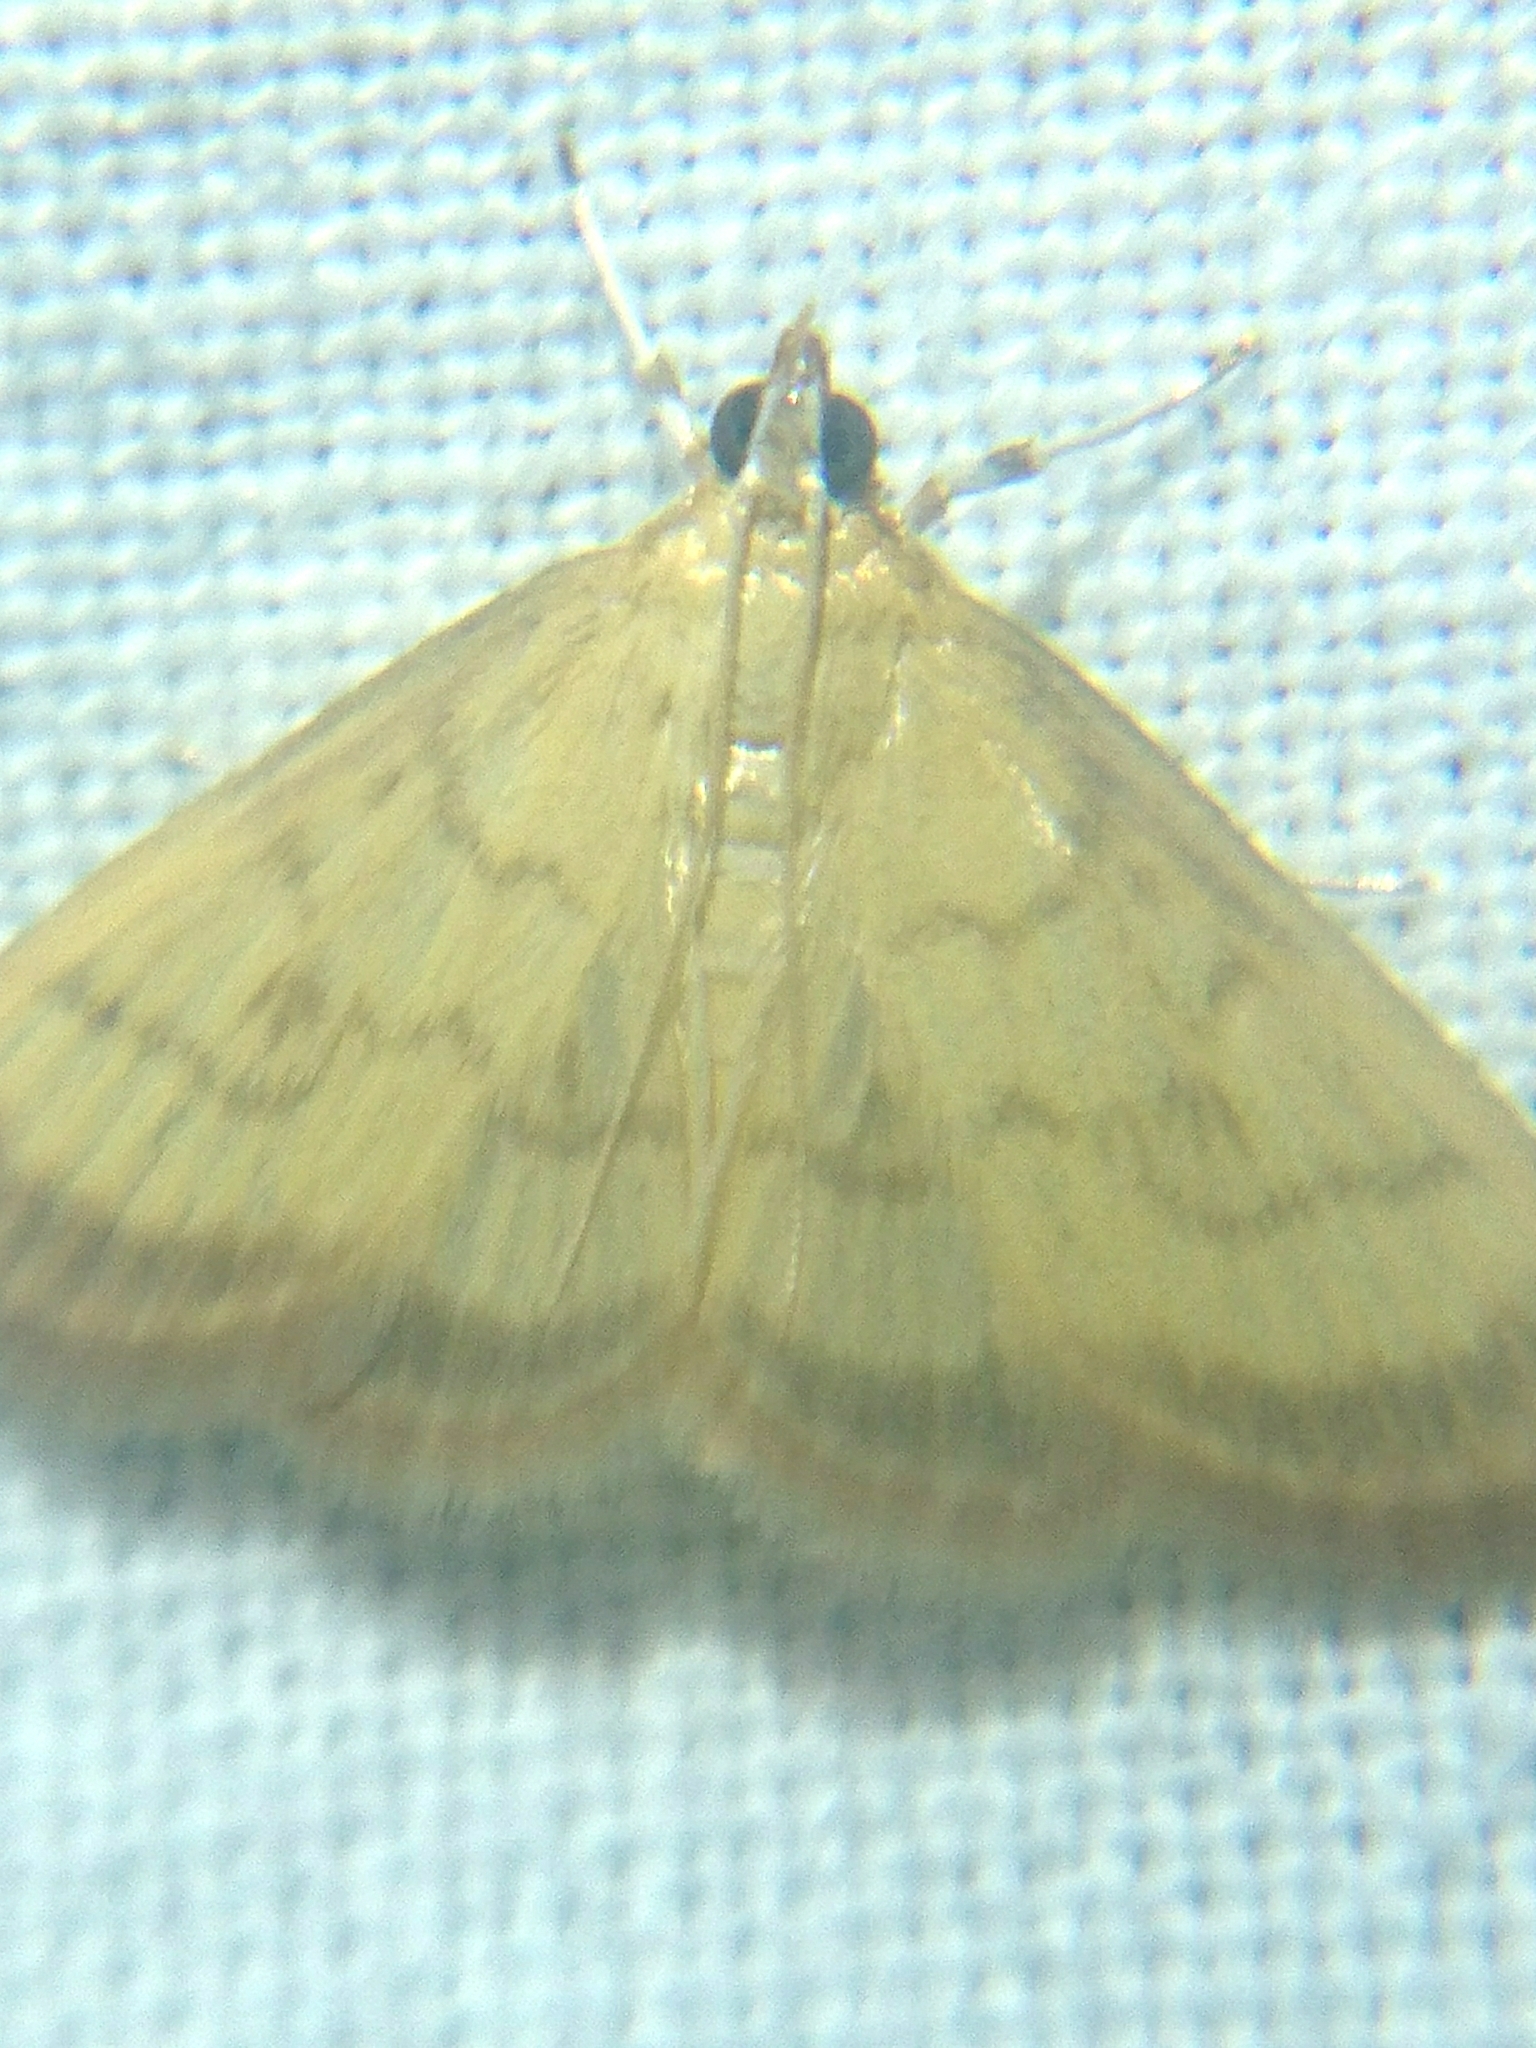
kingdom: Animalia
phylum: Arthropoda
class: Insecta
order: Lepidoptera
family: Crambidae
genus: Crocidophora
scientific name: Crocidophora tuberculalis
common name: Pale-winged crocidiphora moth
